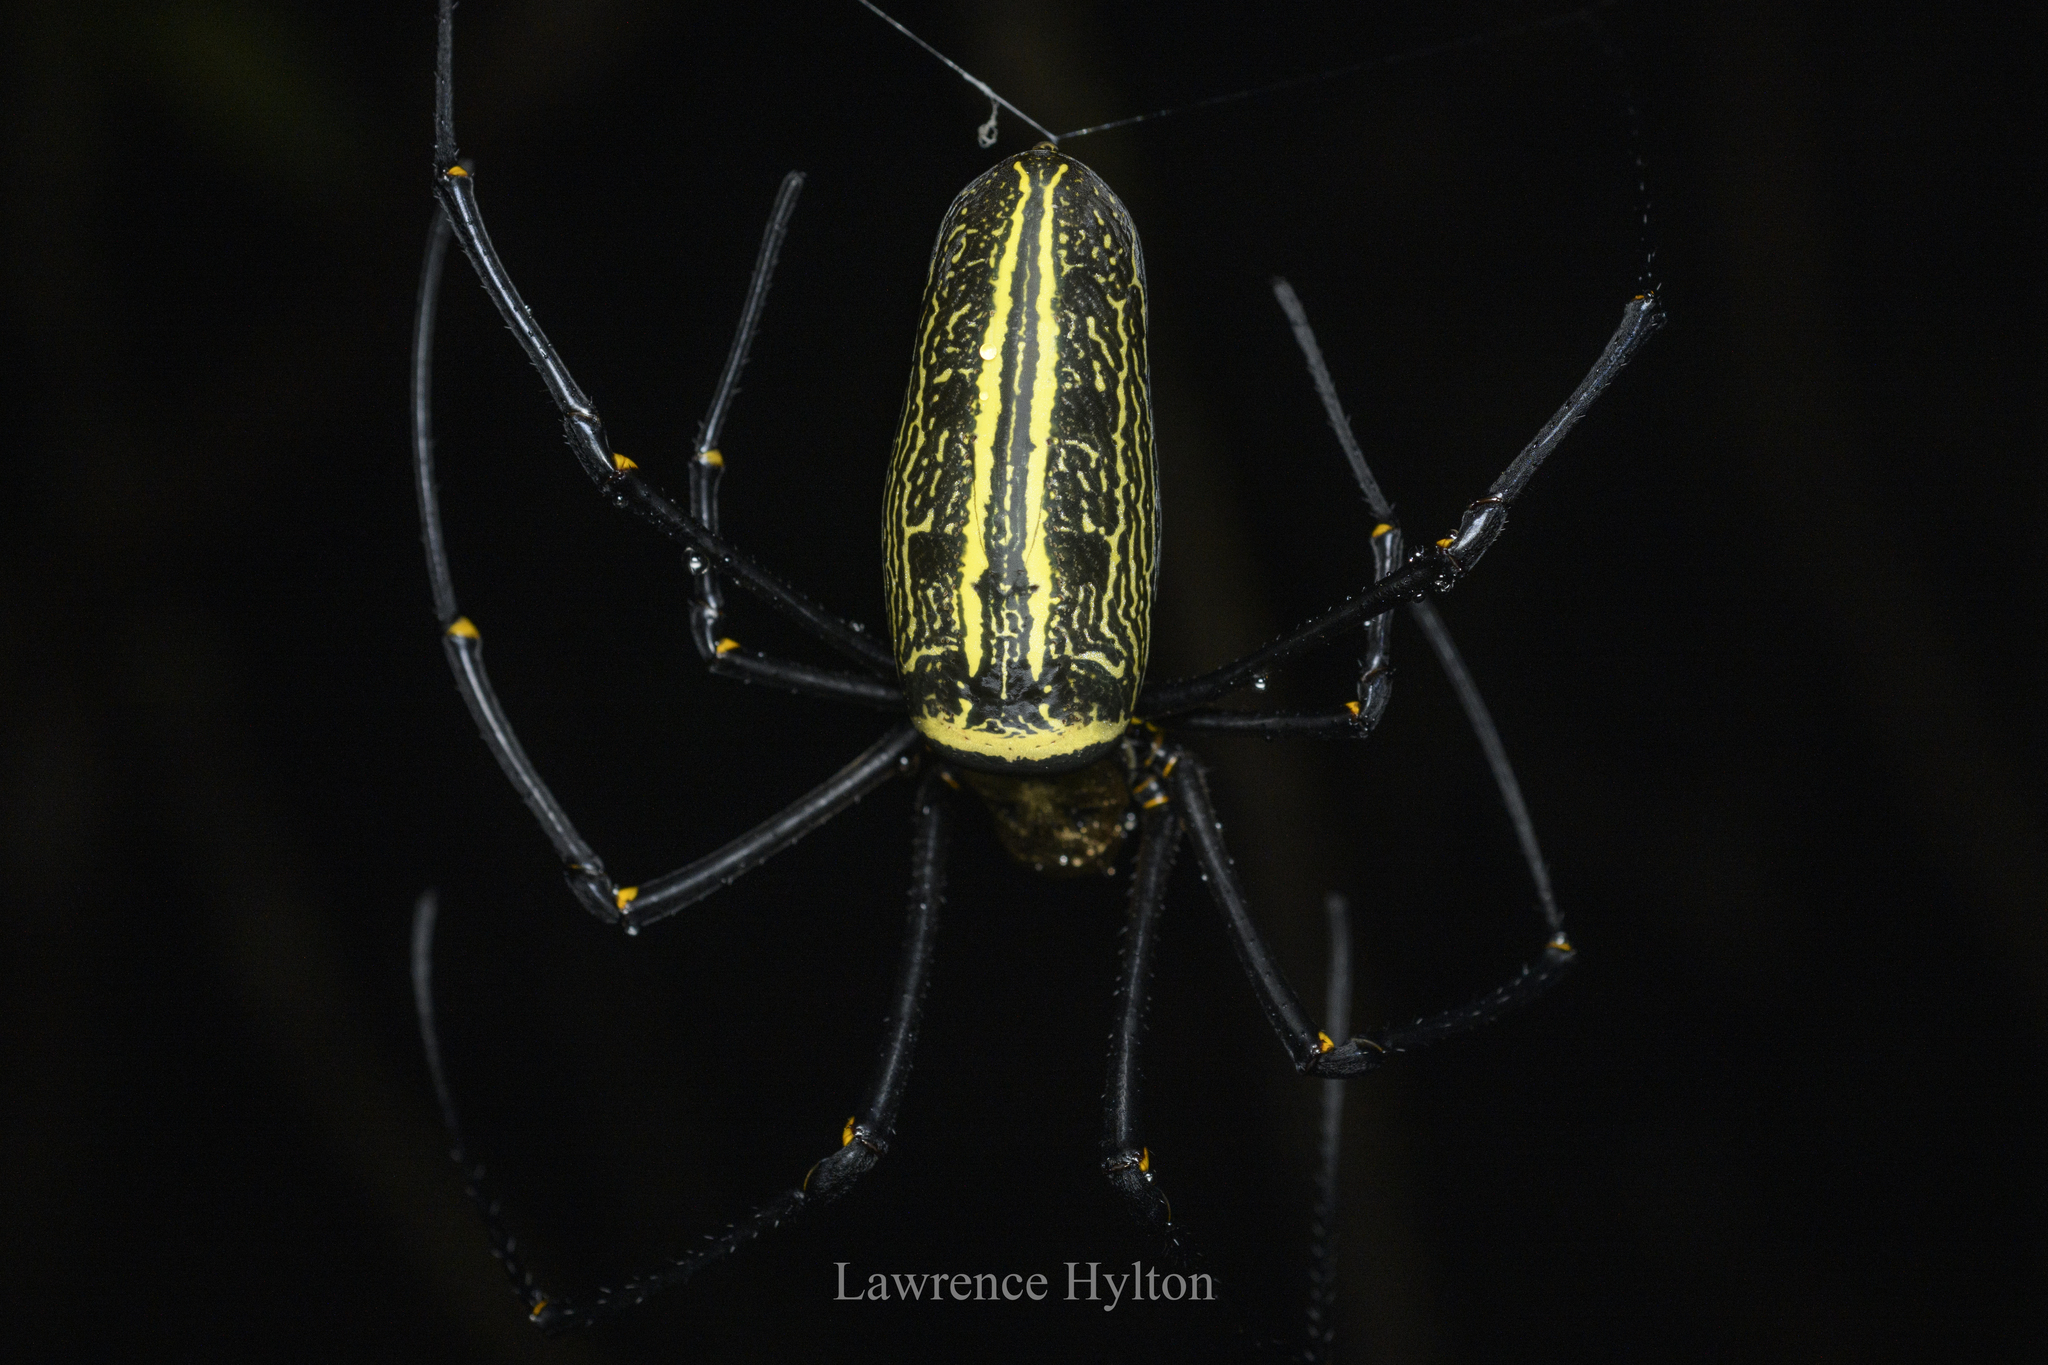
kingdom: Animalia
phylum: Arthropoda
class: Arachnida
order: Araneae
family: Araneidae
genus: Nephila
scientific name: Nephila pilipes
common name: Giant golden orb weaver
